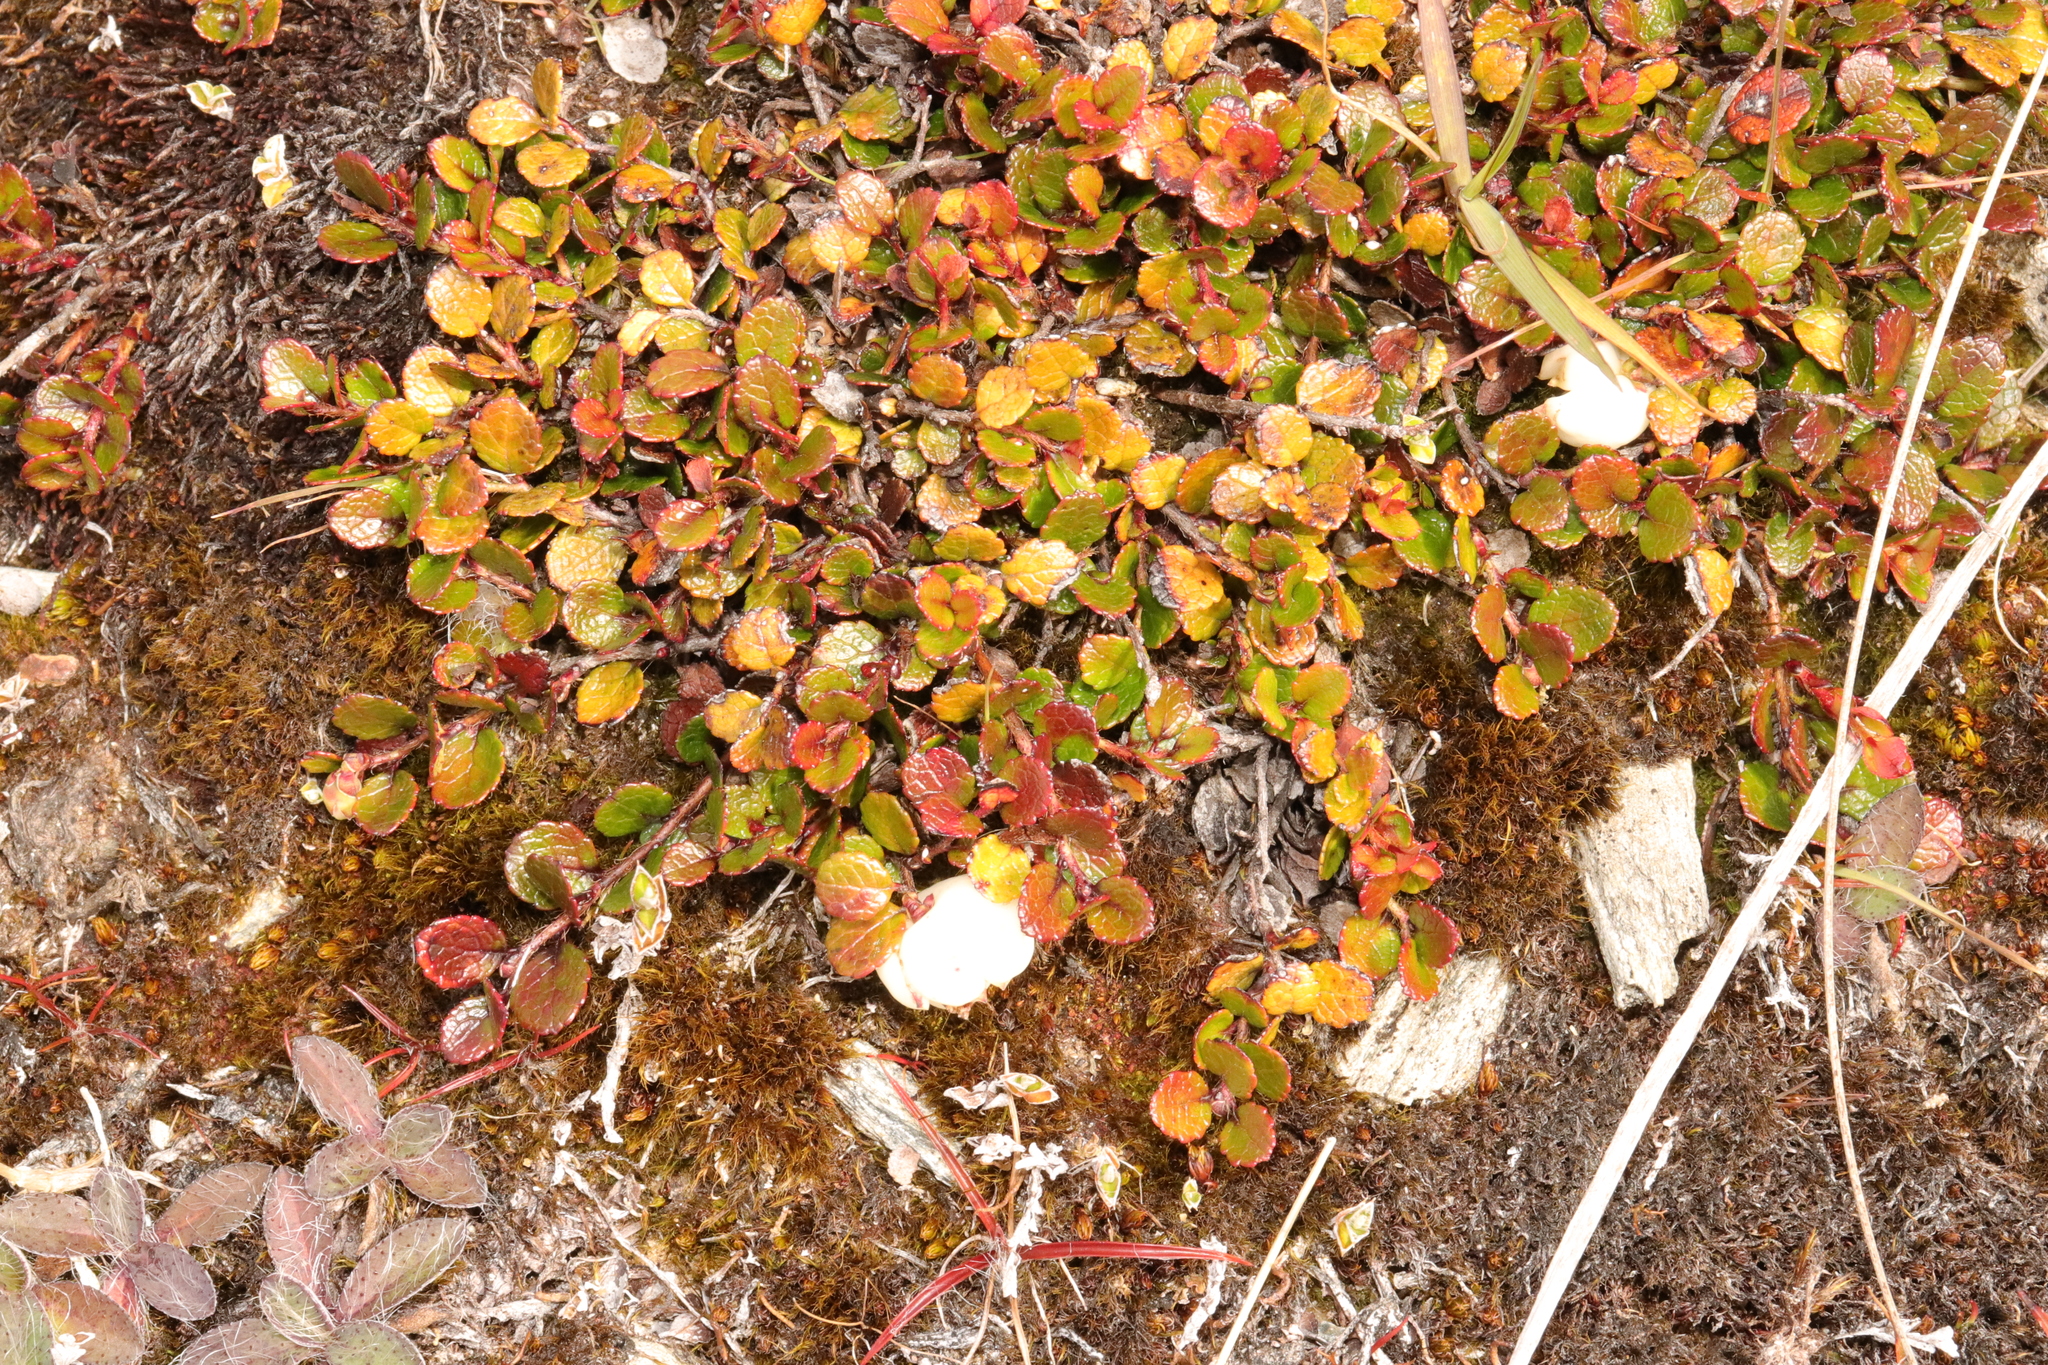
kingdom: Plantae
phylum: Tracheophyta
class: Magnoliopsida
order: Ericales
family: Ericaceae
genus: Gaultheria
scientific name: Gaultheria depressa
